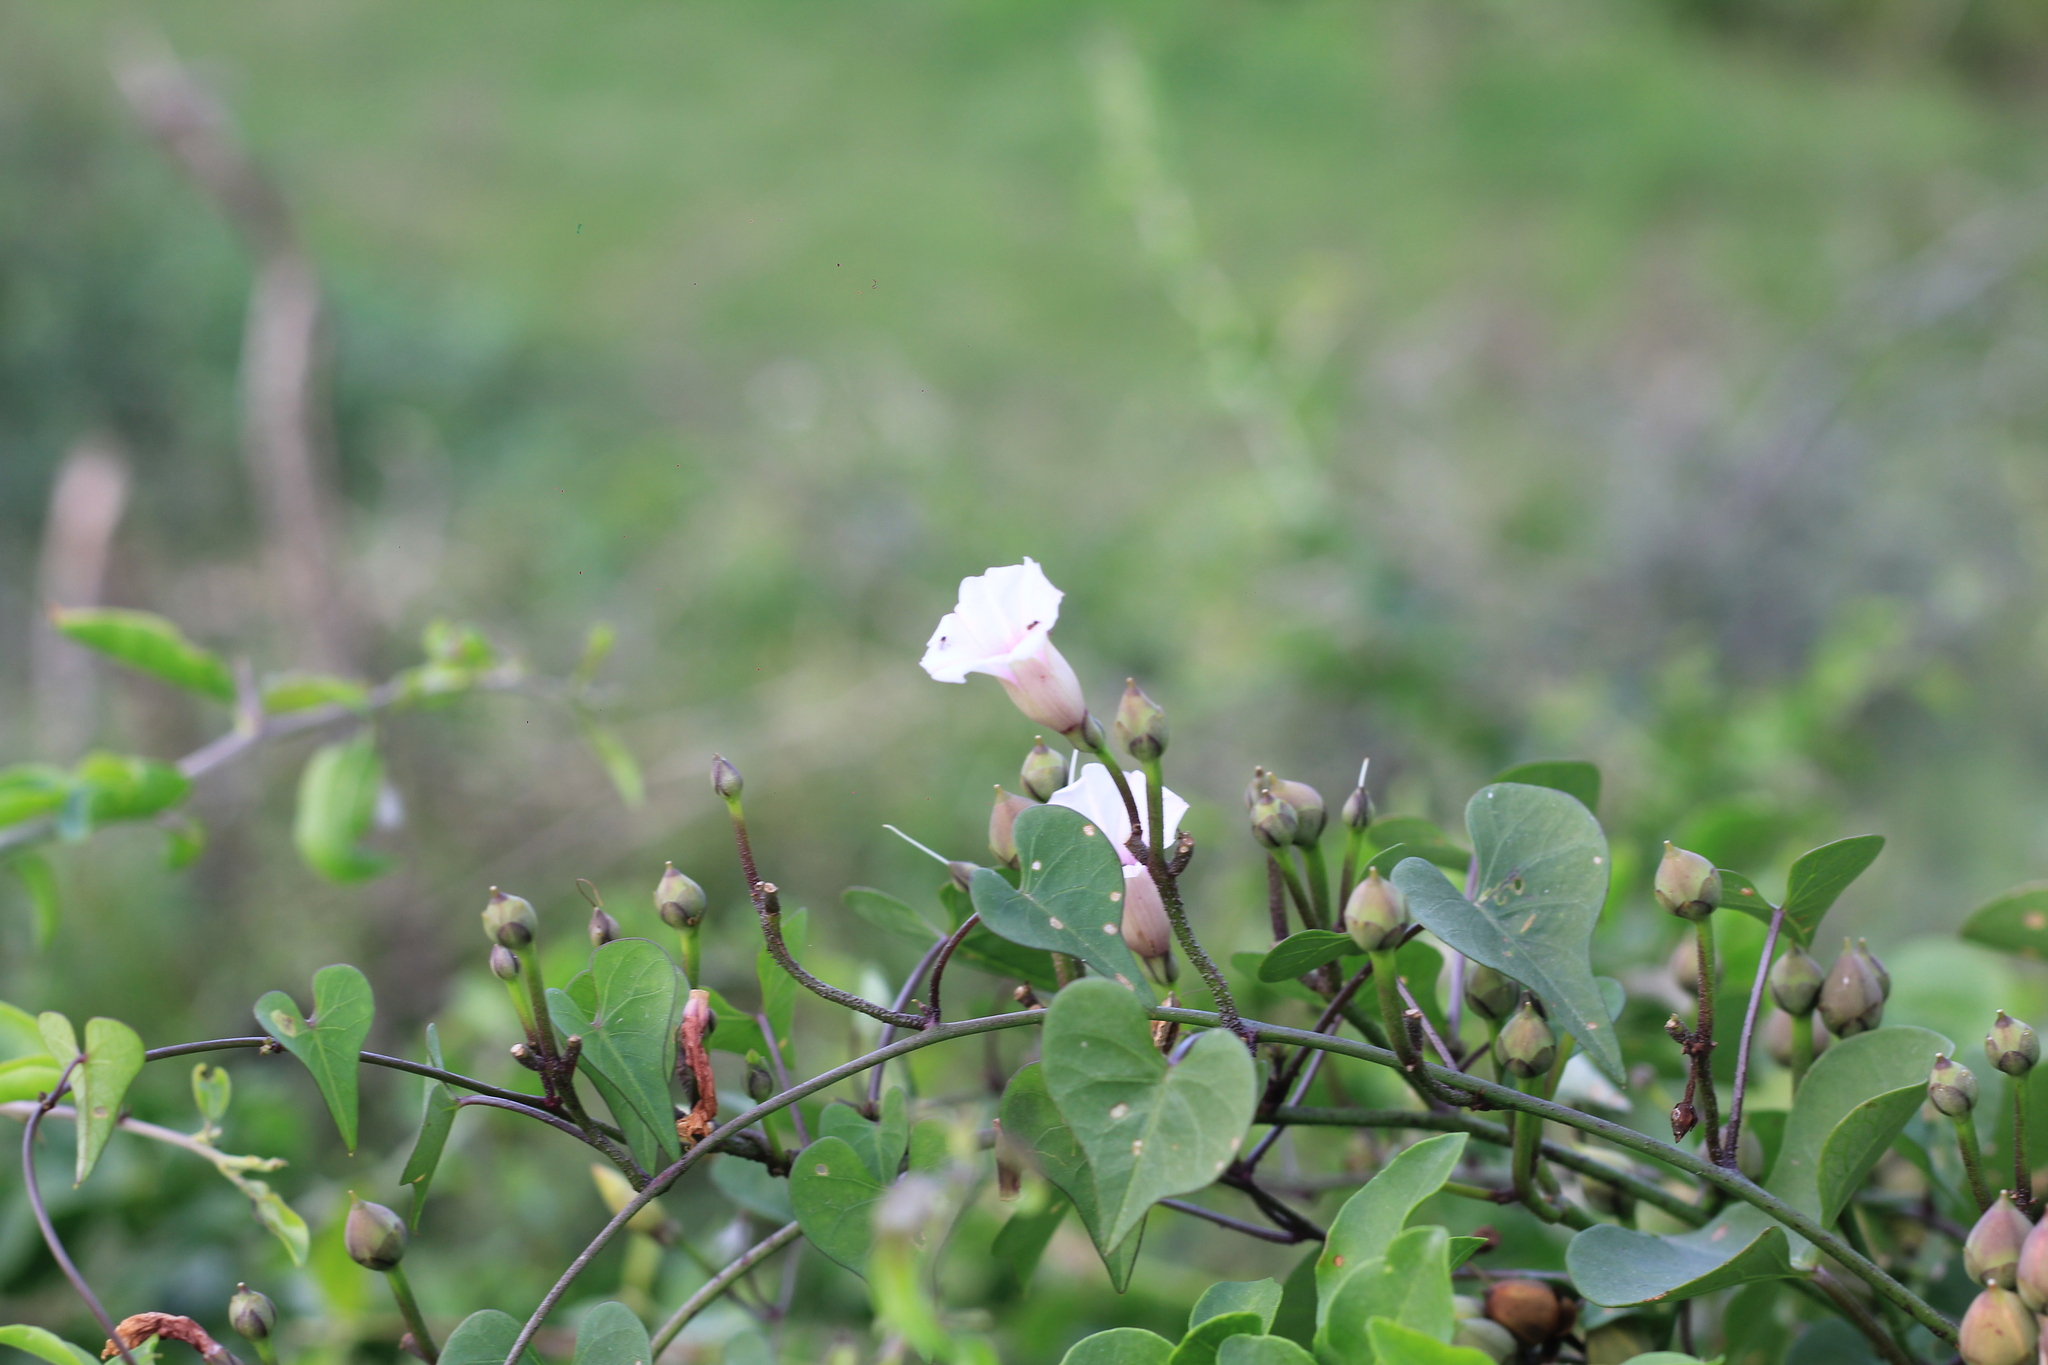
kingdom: Plantae
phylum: Tracheophyta
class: Magnoliopsida
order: Solanales
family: Convolvulaceae
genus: Ipomoea
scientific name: Ipomoea amnicola
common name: Redcenter morning-glory
